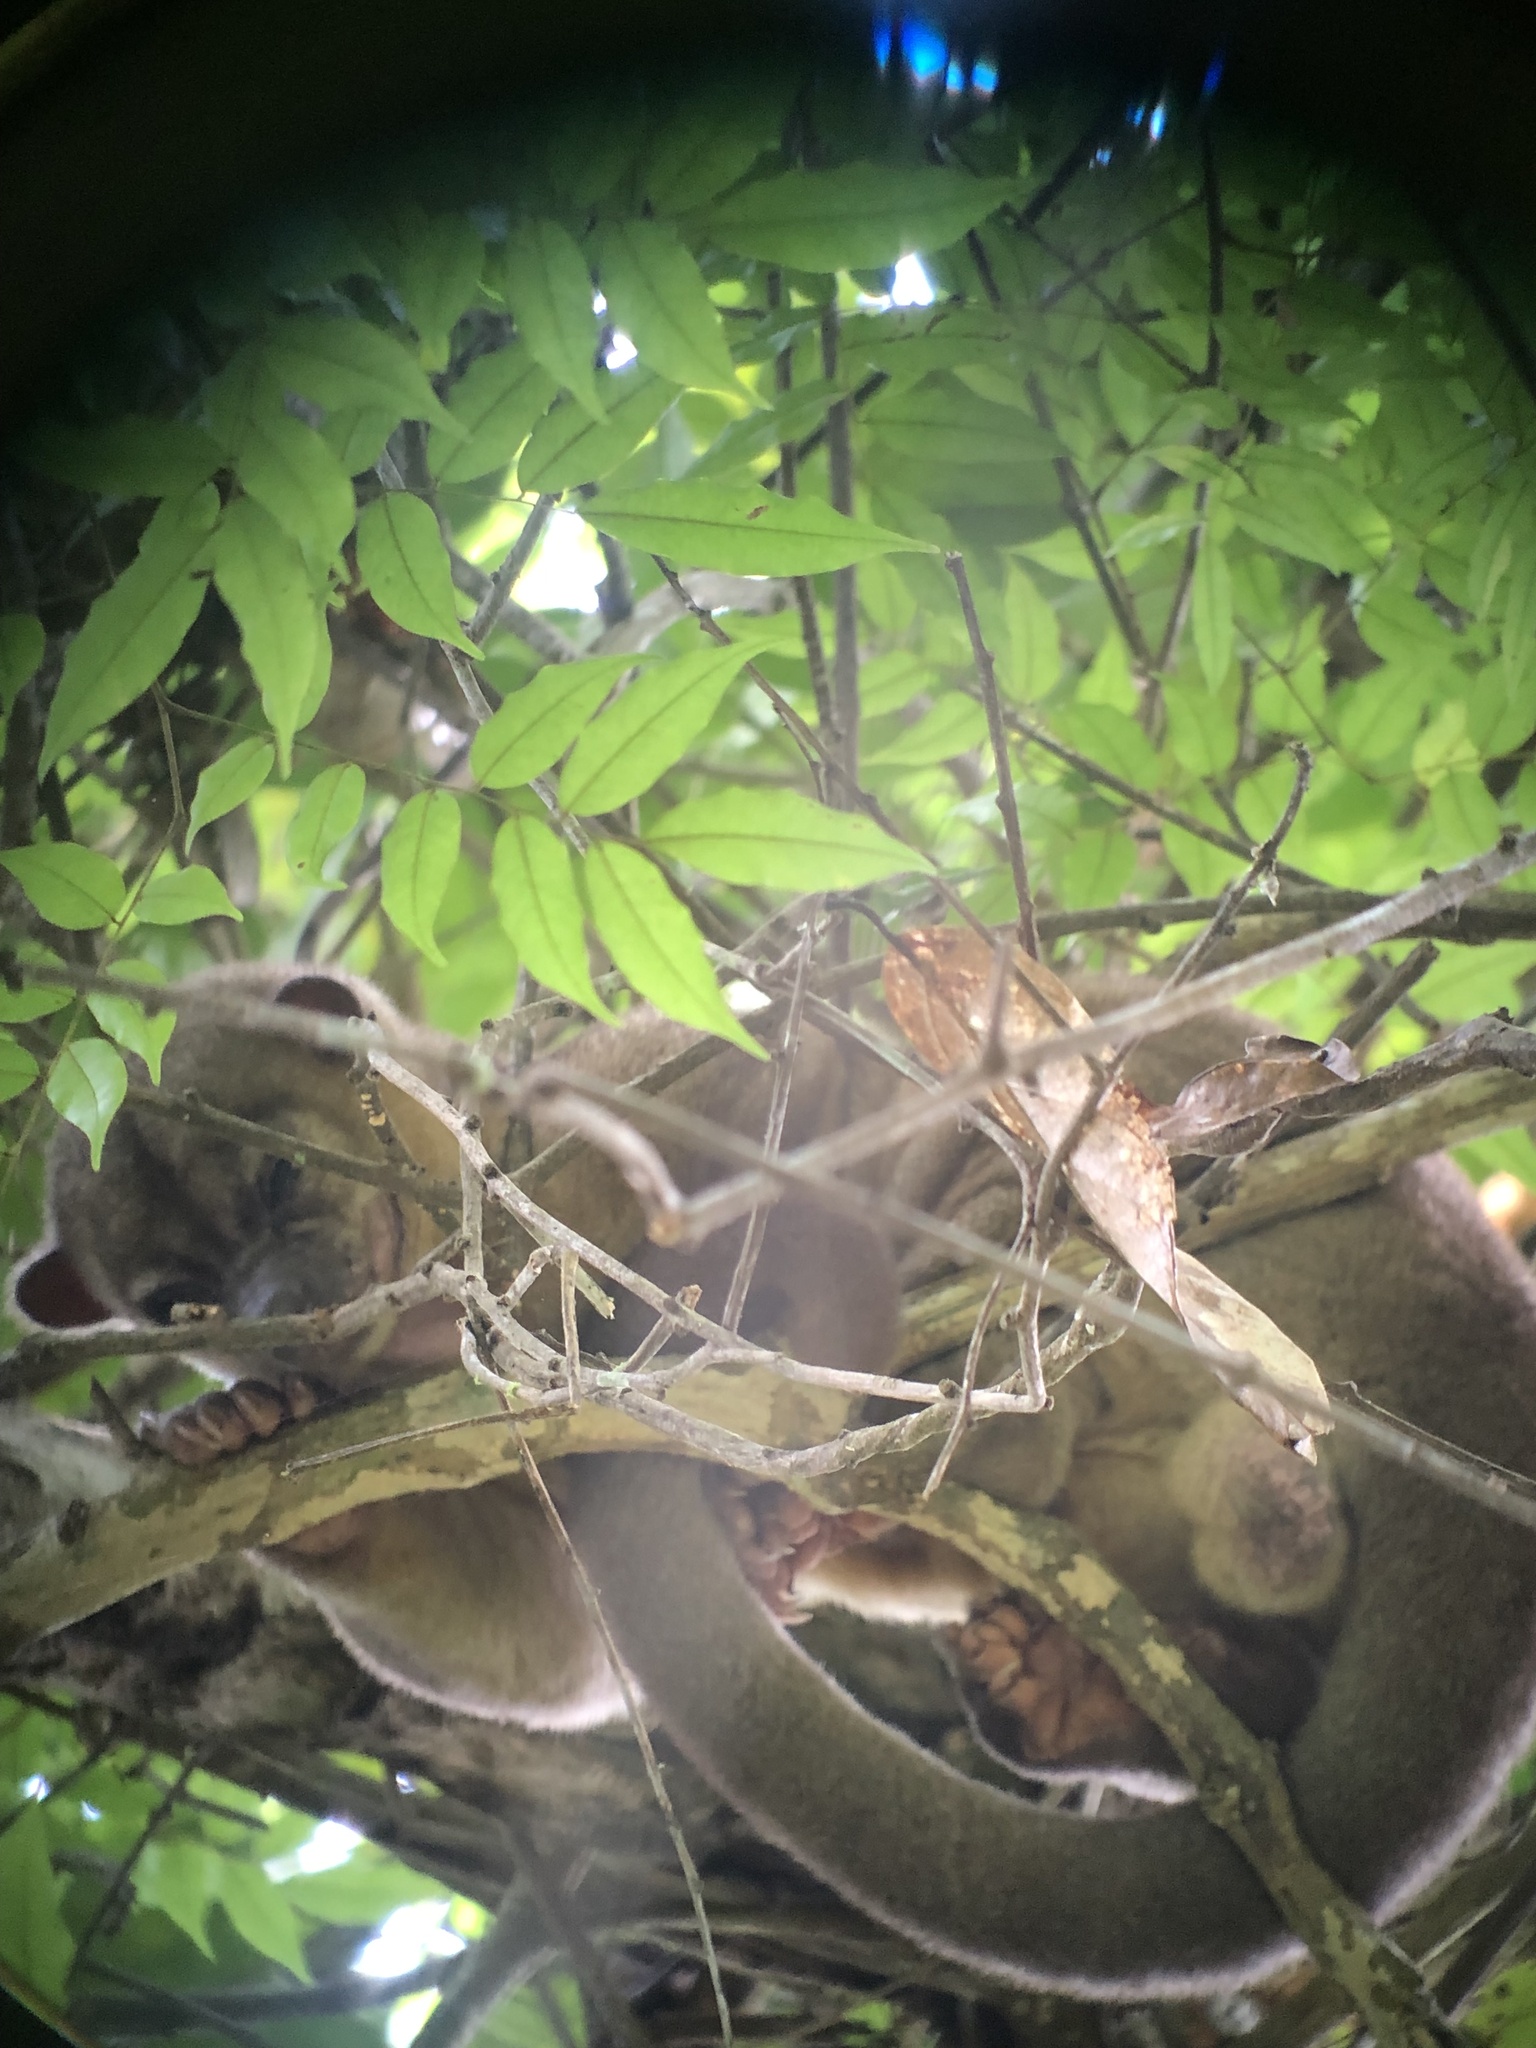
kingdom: Animalia
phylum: Chordata
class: Mammalia
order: Carnivora
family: Procyonidae
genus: Potos
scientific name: Potos flavus
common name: Kinkajou
